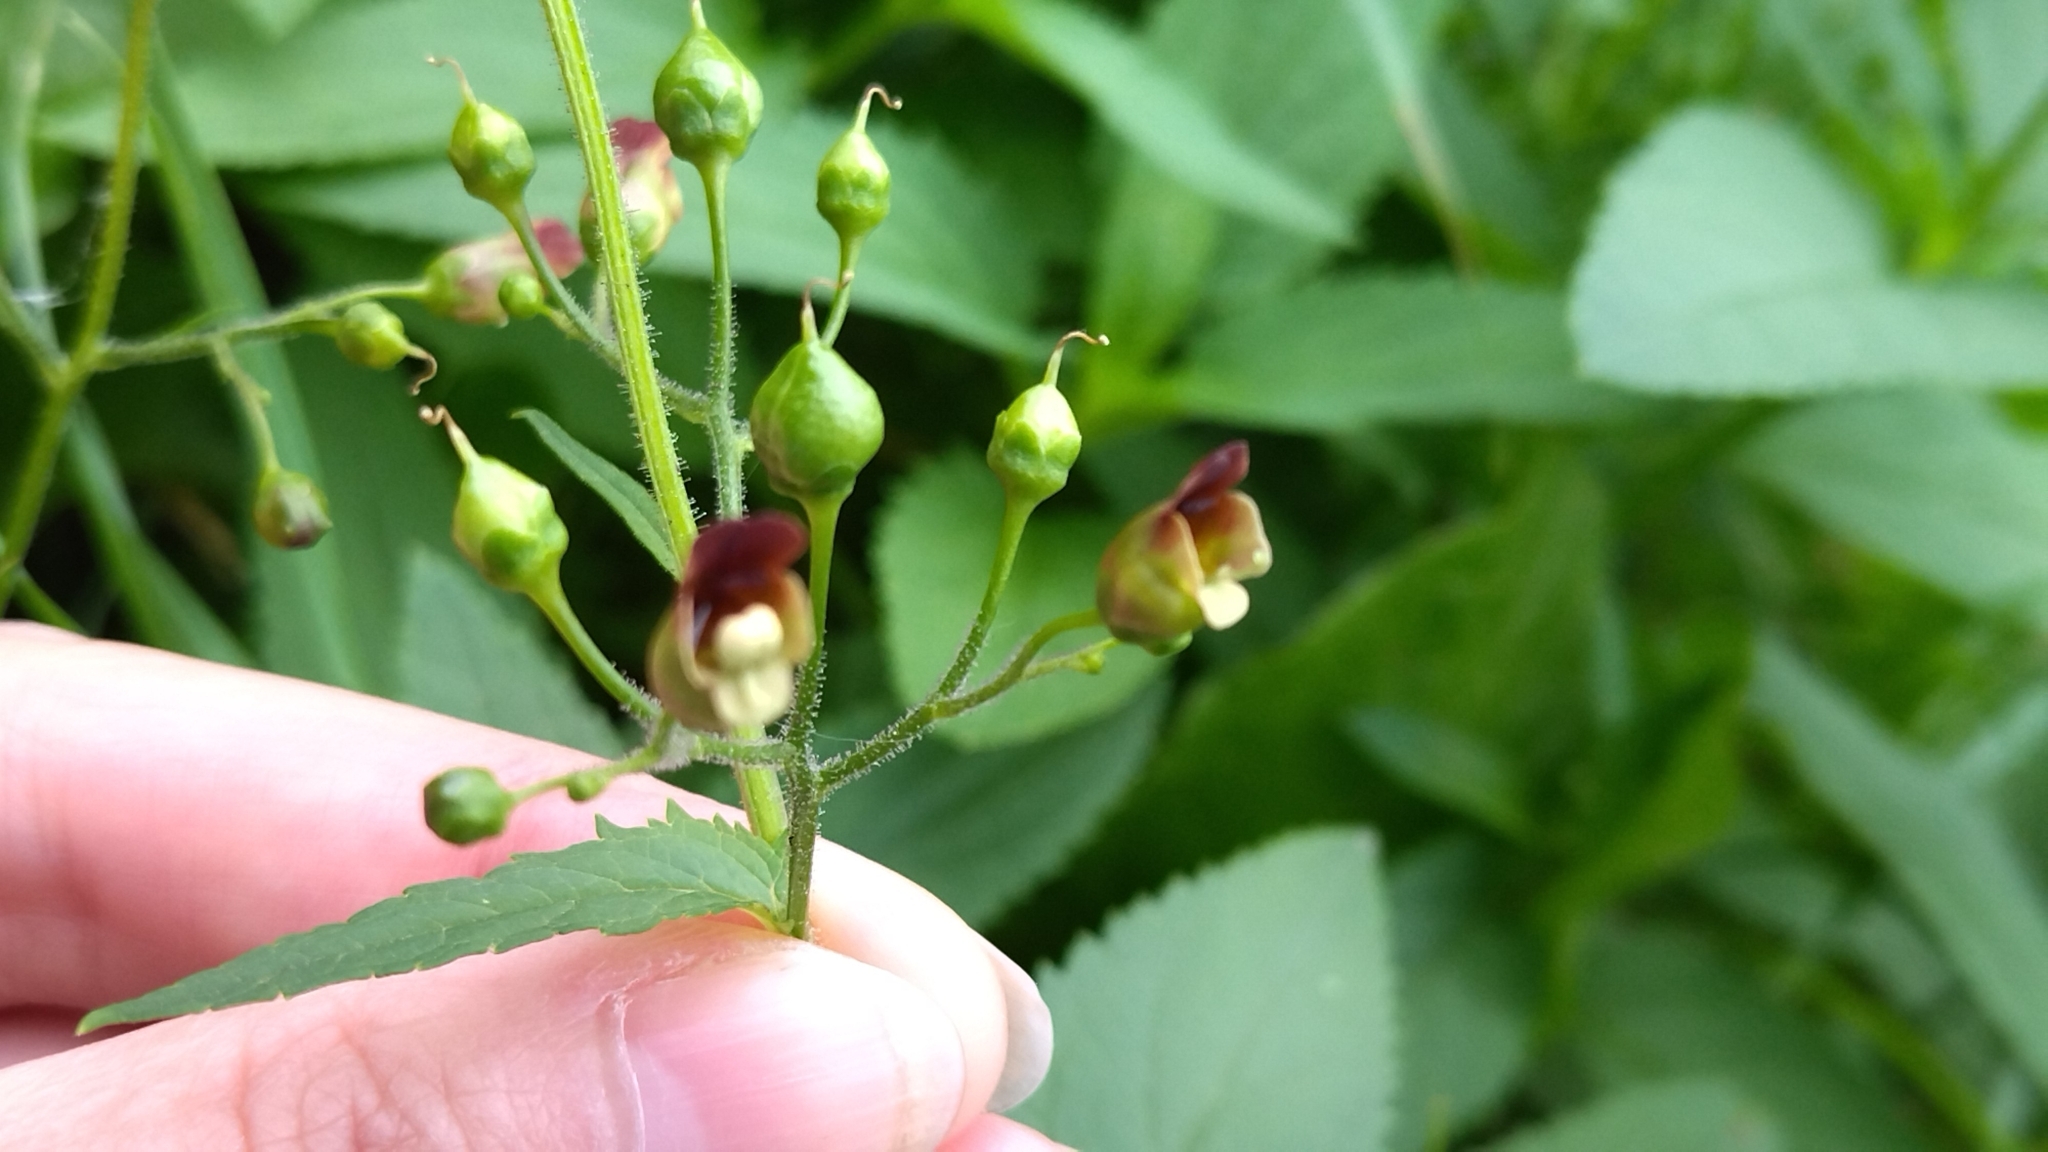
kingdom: Plantae
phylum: Tracheophyta
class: Magnoliopsida
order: Lamiales
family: Scrophulariaceae
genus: Scrophularia
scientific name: Scrophularia nodosa
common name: Common figwort
